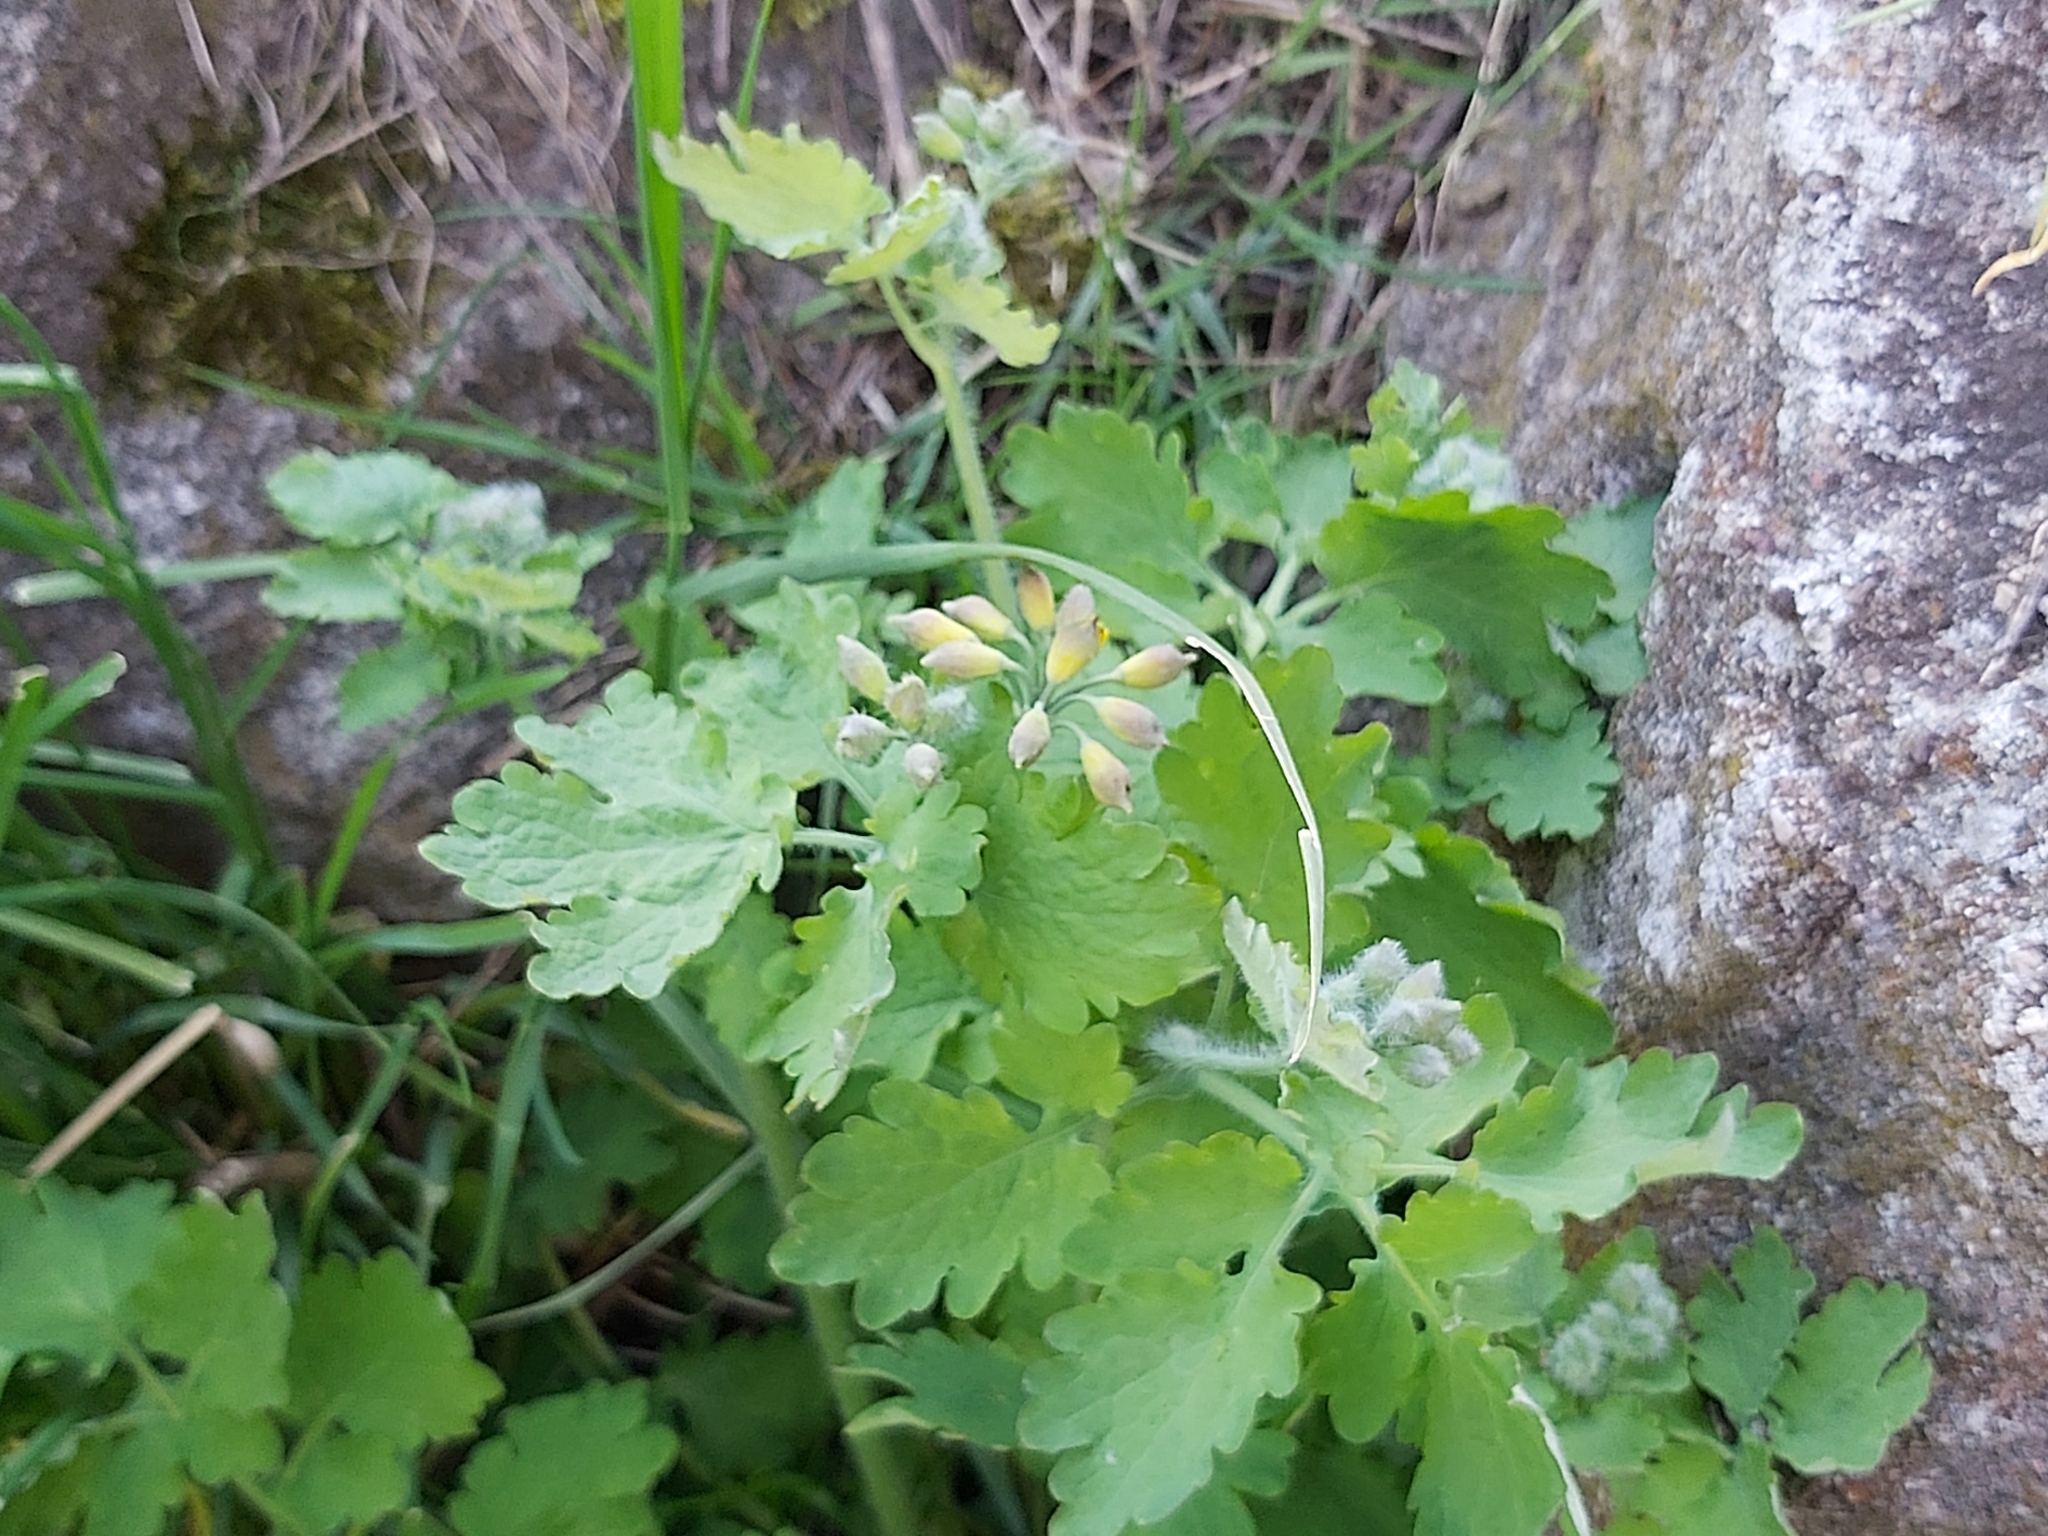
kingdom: Plantae
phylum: Tracheophyta
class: Magnoliopsida
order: Ranunculales
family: Papaveraceae
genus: Chelidonium
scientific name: Chelidonium majus
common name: Greater celandine
